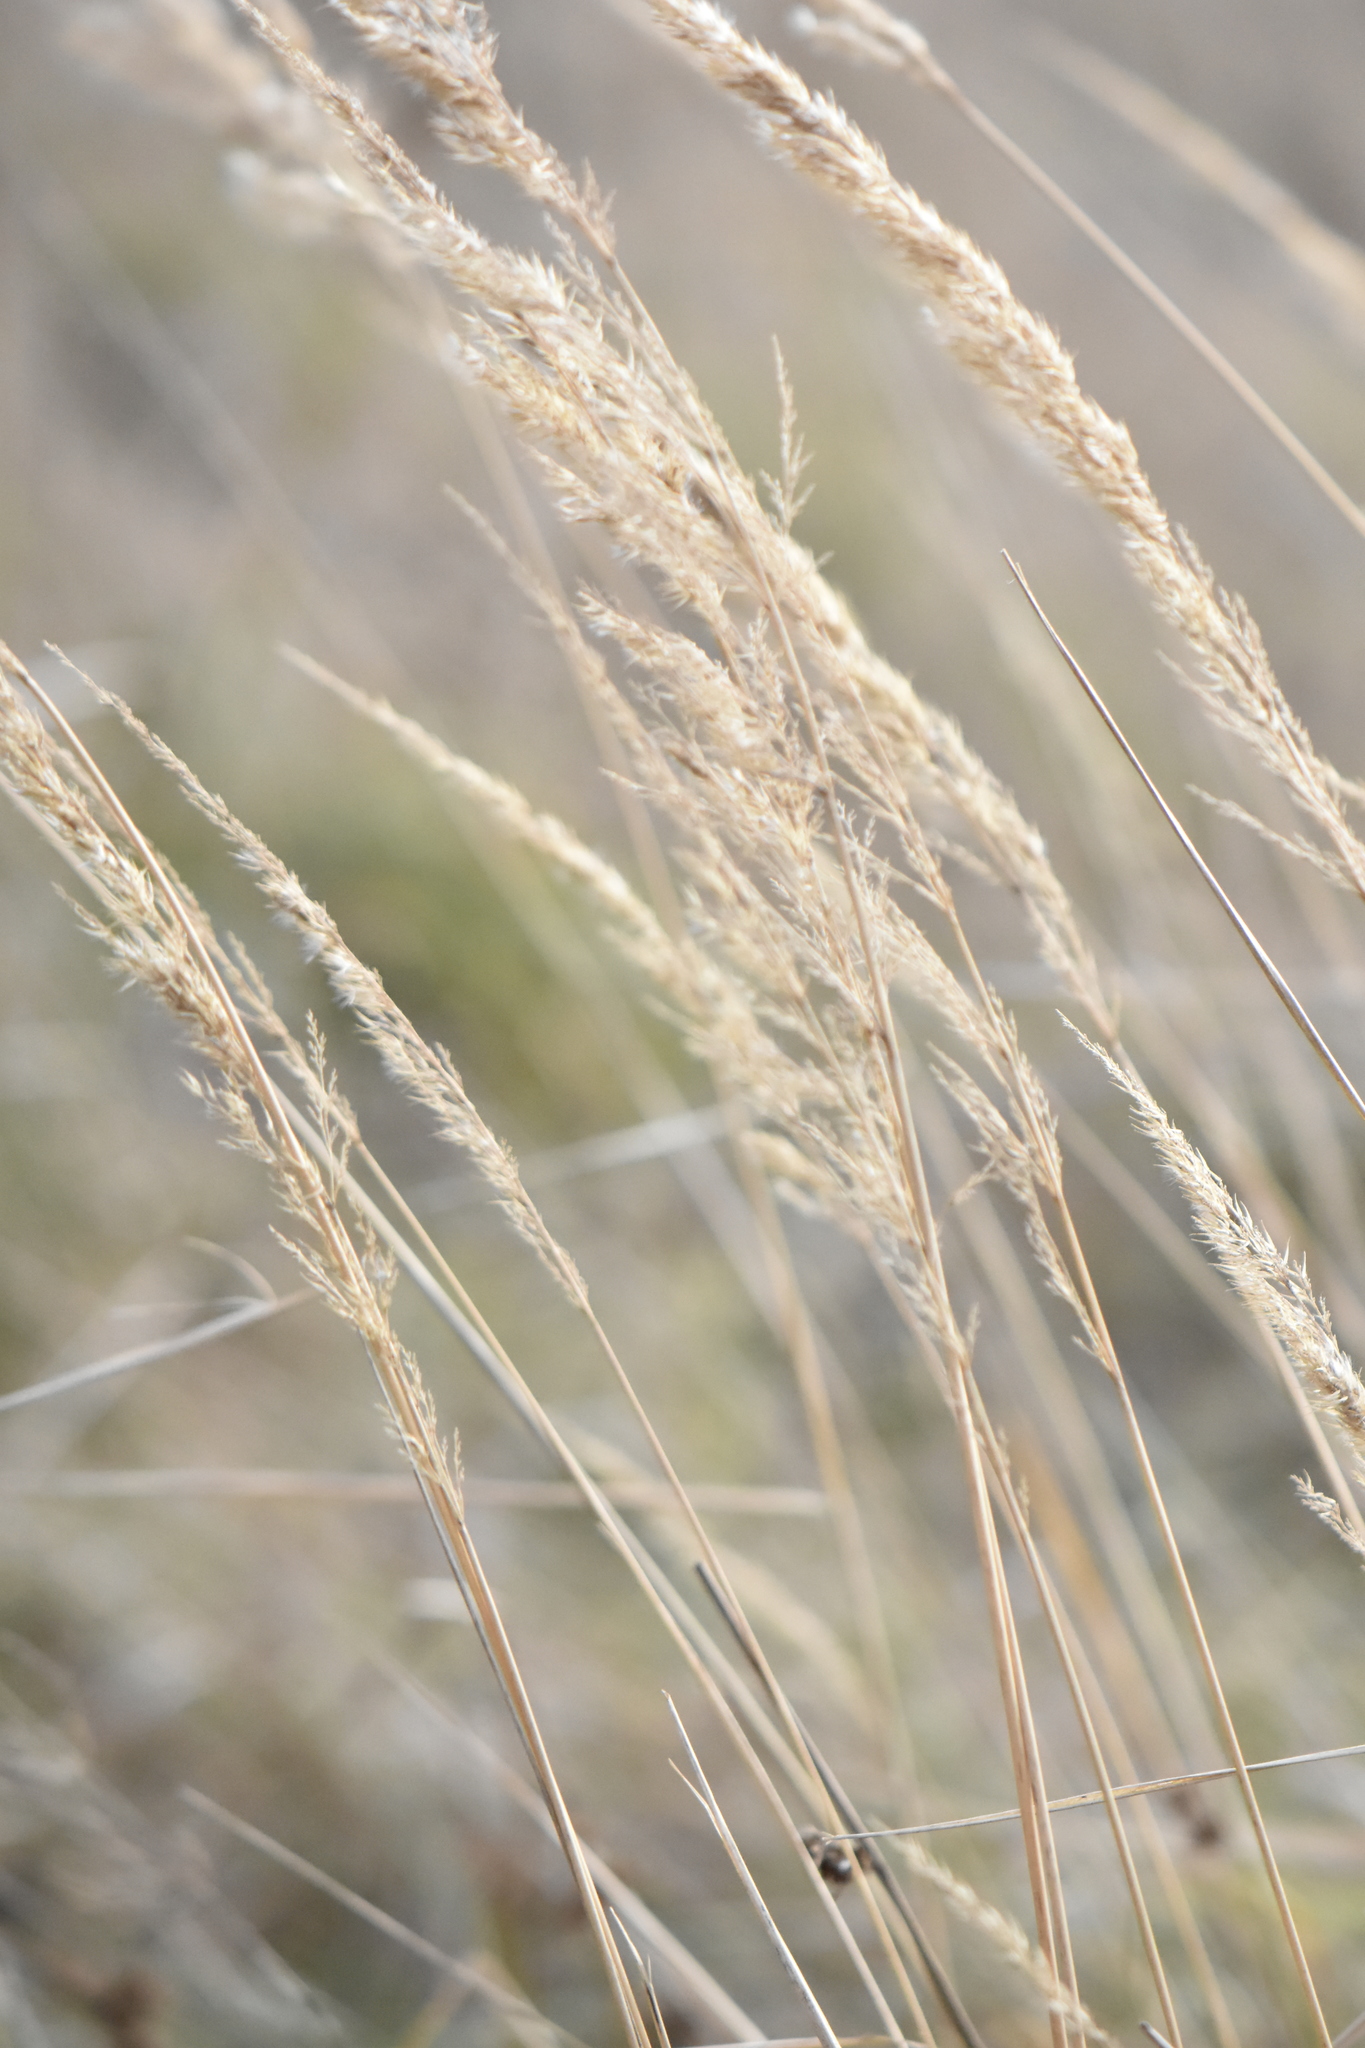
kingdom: Plantae
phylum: Tracheophyta
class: Liliopsida
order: Poales
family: Poaceae
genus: Calamagrostis
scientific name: Calamagrostis epigejos
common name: Wood small-reed
